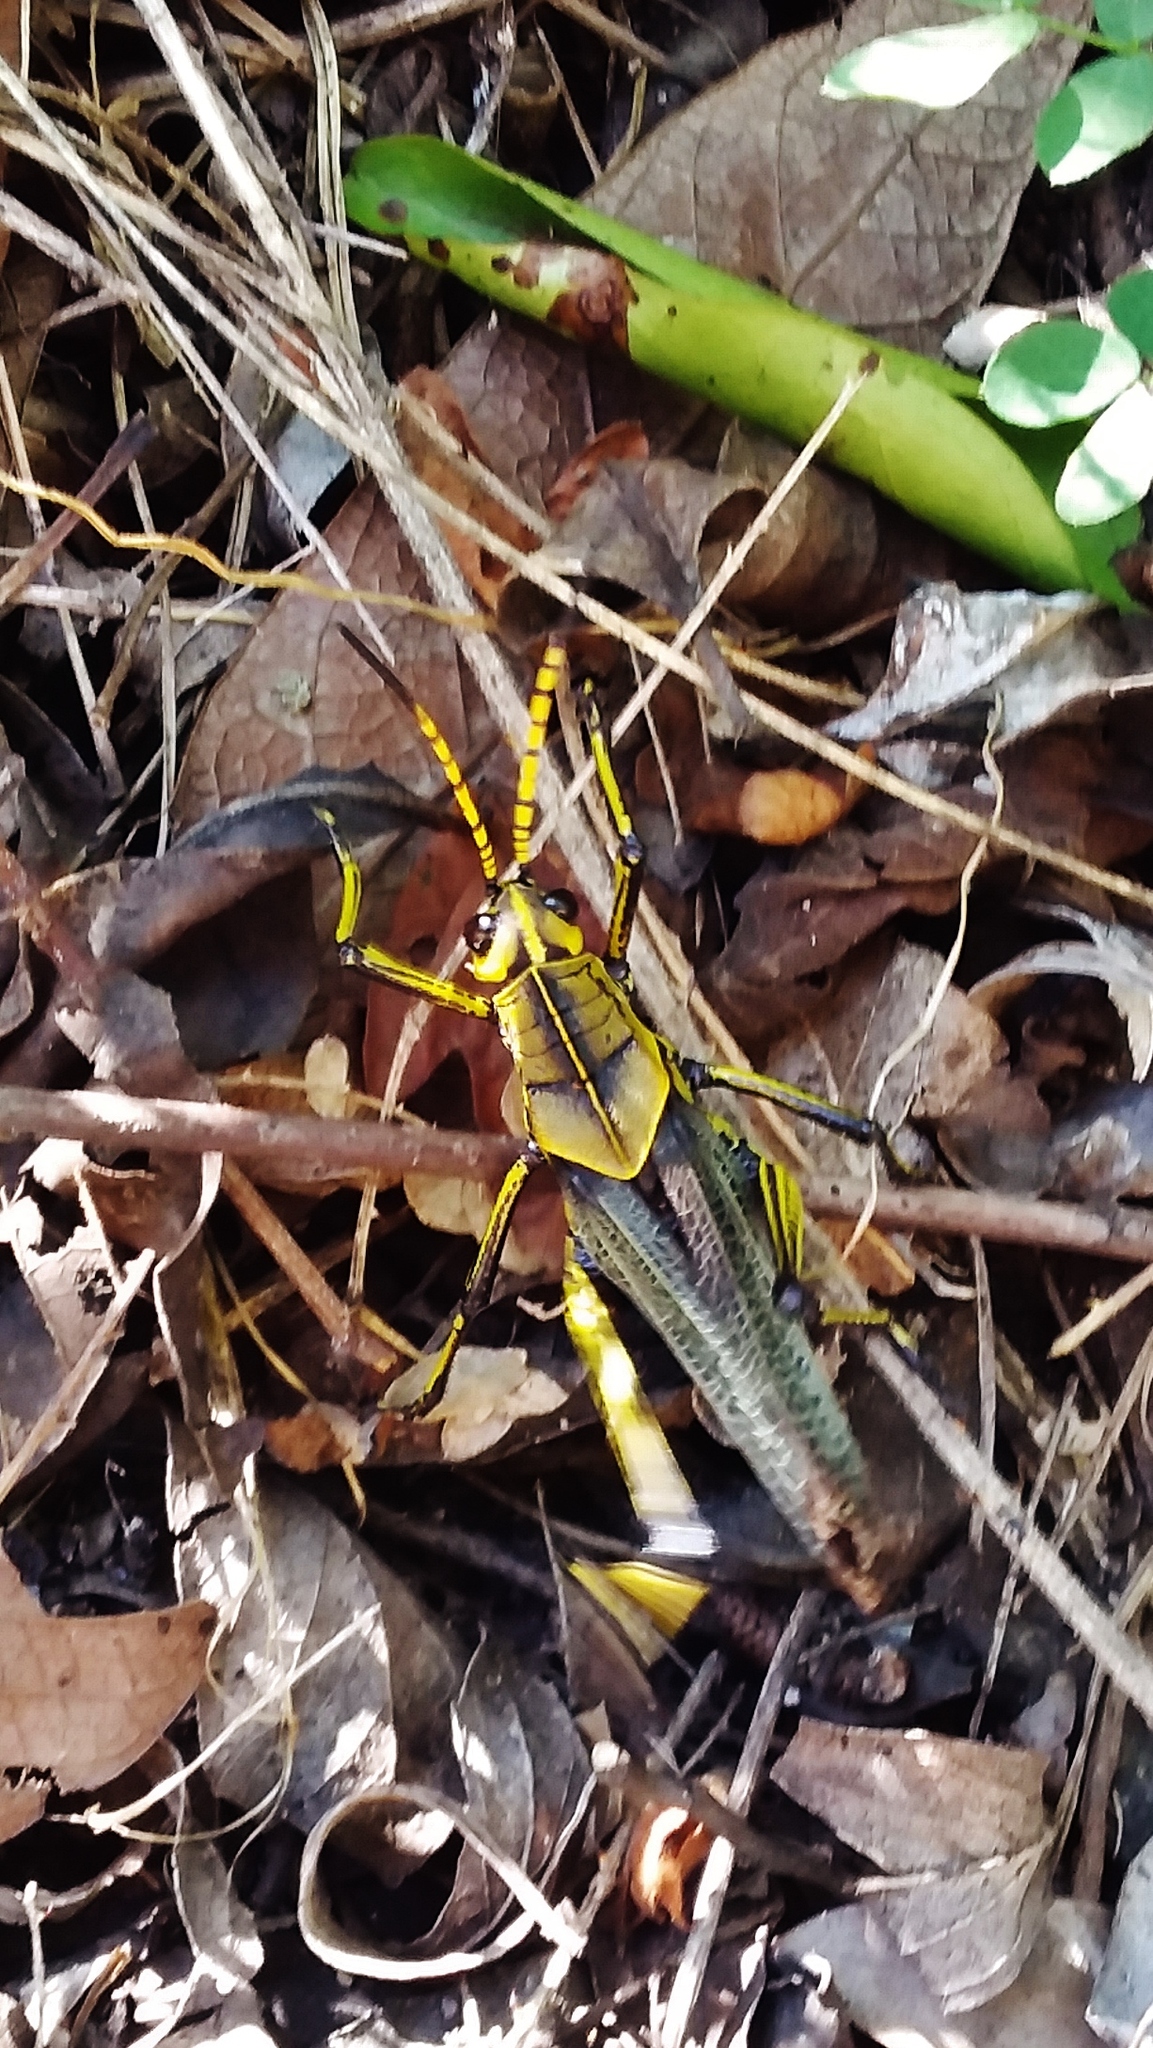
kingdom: Animalia
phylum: Arthropoda
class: Insecta
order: Orthoptera
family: Romaleidae
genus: Romalea
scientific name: Romalea
